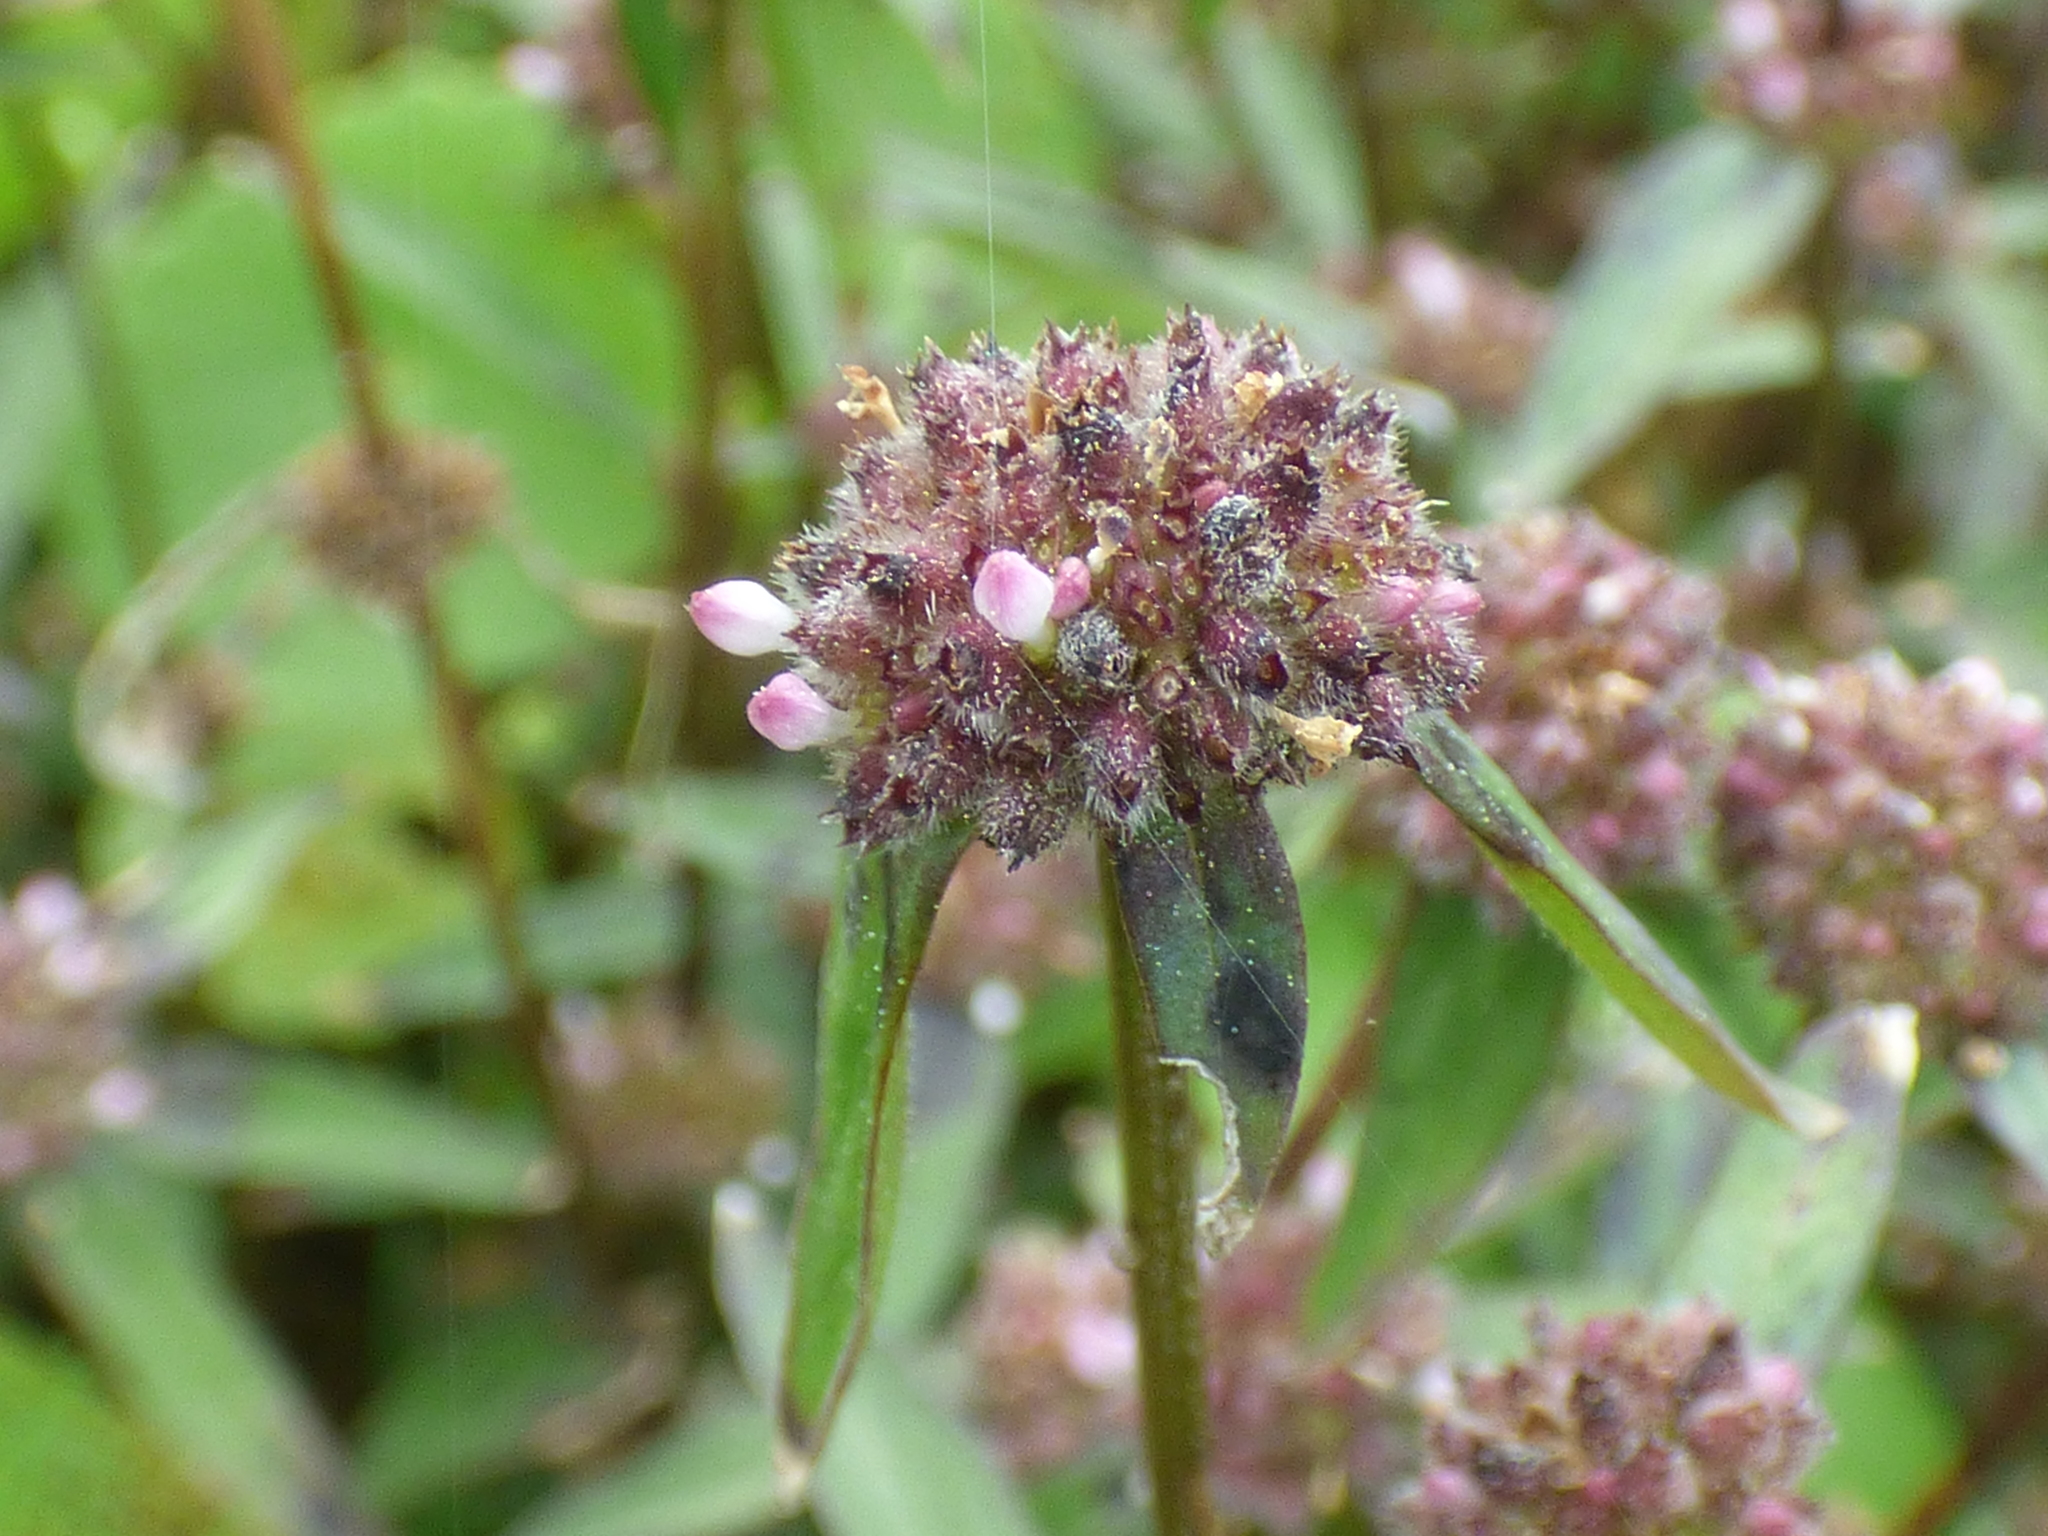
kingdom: Plantae
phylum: Tracheophyta
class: Magnoliopsida
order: Gentianales
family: Rubiaceae
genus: Spermacoce
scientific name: Spermacoce remota
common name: Woodland false buttonweed
